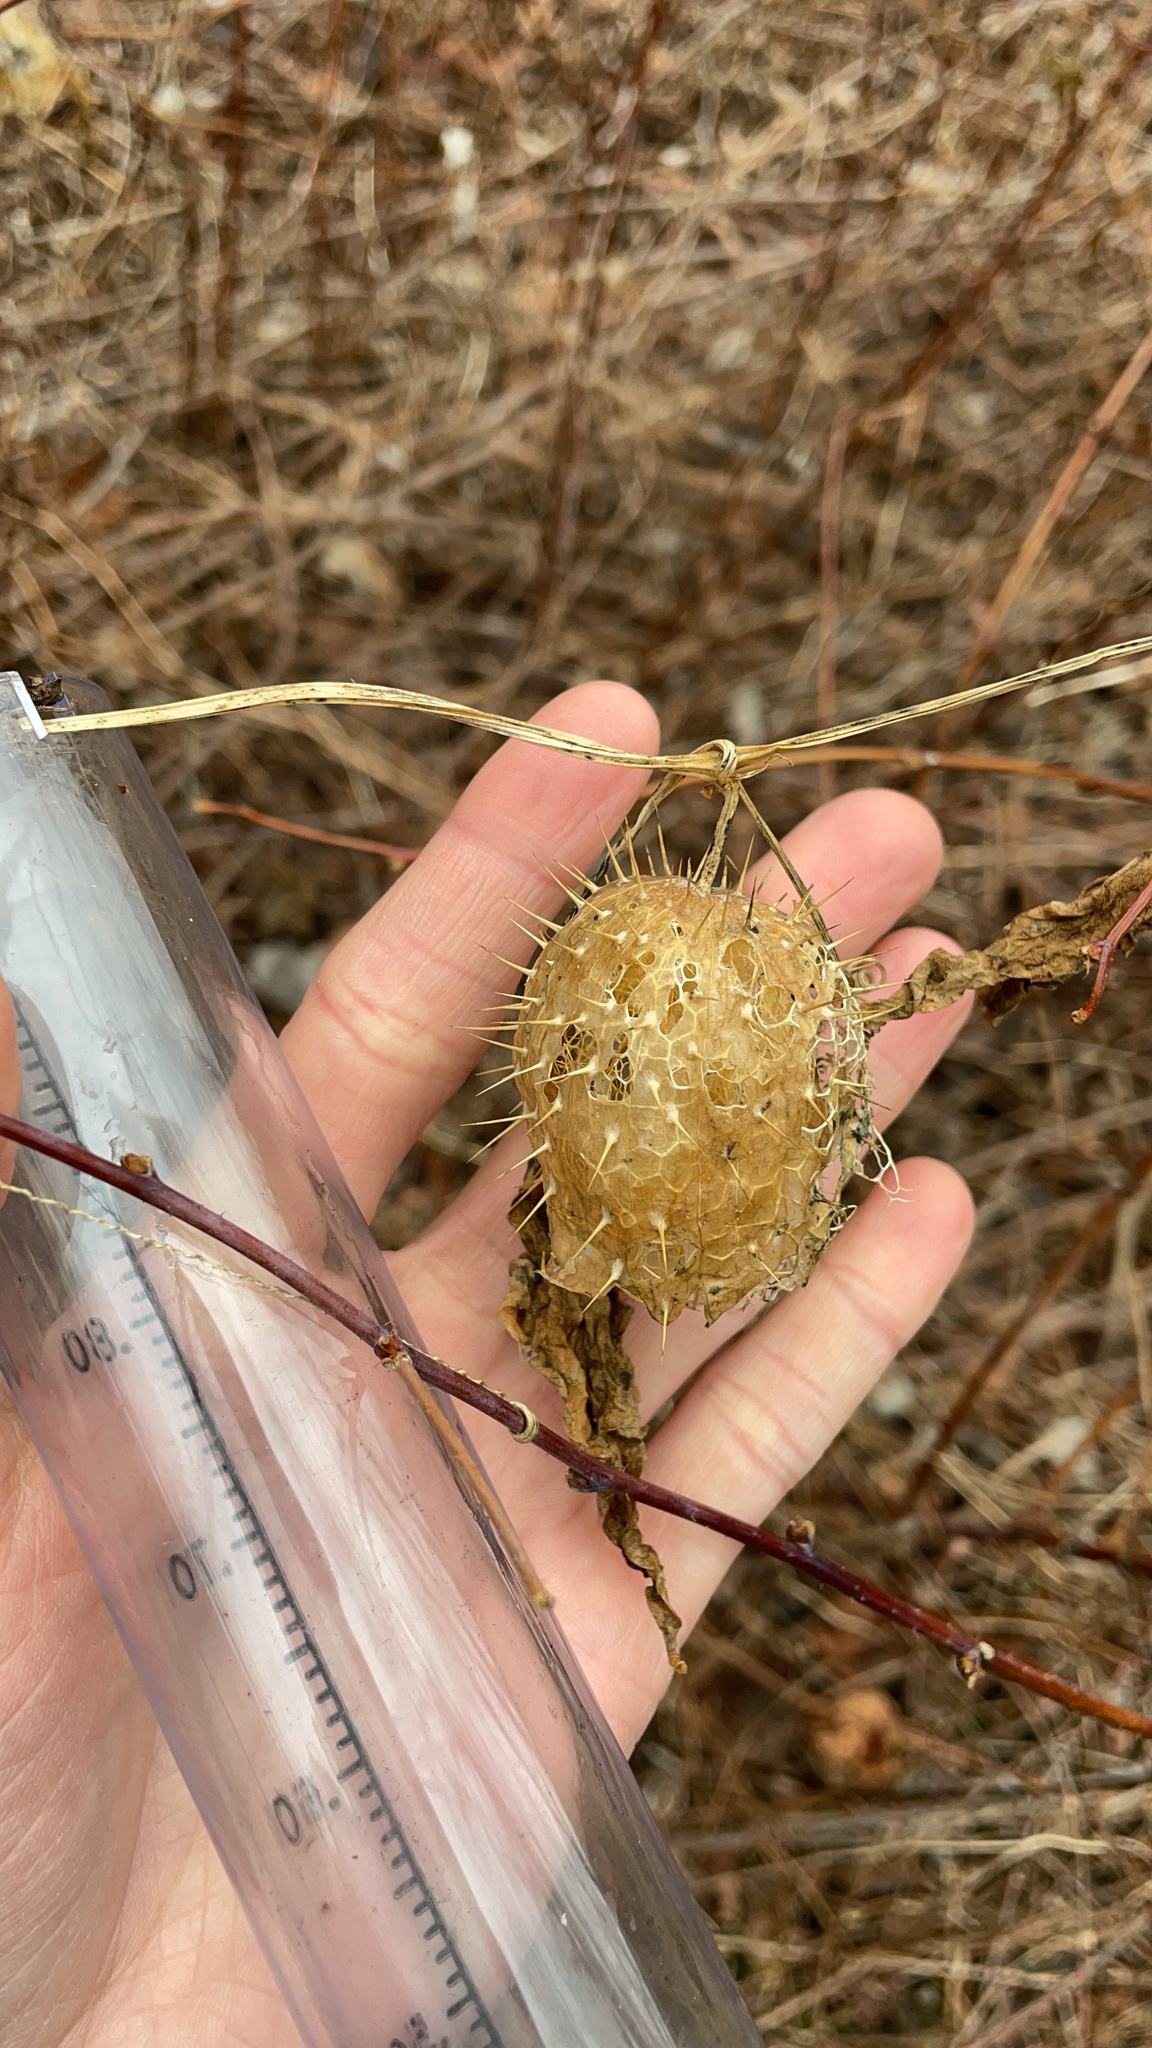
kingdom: Plantae
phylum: Tracheophyta
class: Magnoliopsida
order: Cucurbitales
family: Cucurbitaceae
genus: Echinocystis
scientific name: Echinocystis lobata
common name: Wild cucumber
